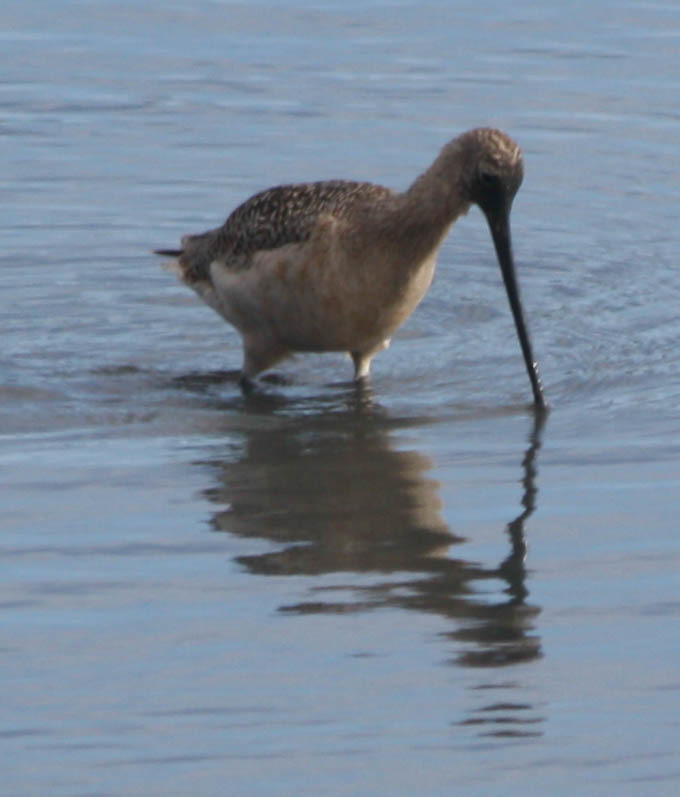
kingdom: Animalia
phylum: Chordata
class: Aves
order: Charadriiformes
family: Scolopacidae
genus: Limosa
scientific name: Limosa fedoa
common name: Marbled godwit
